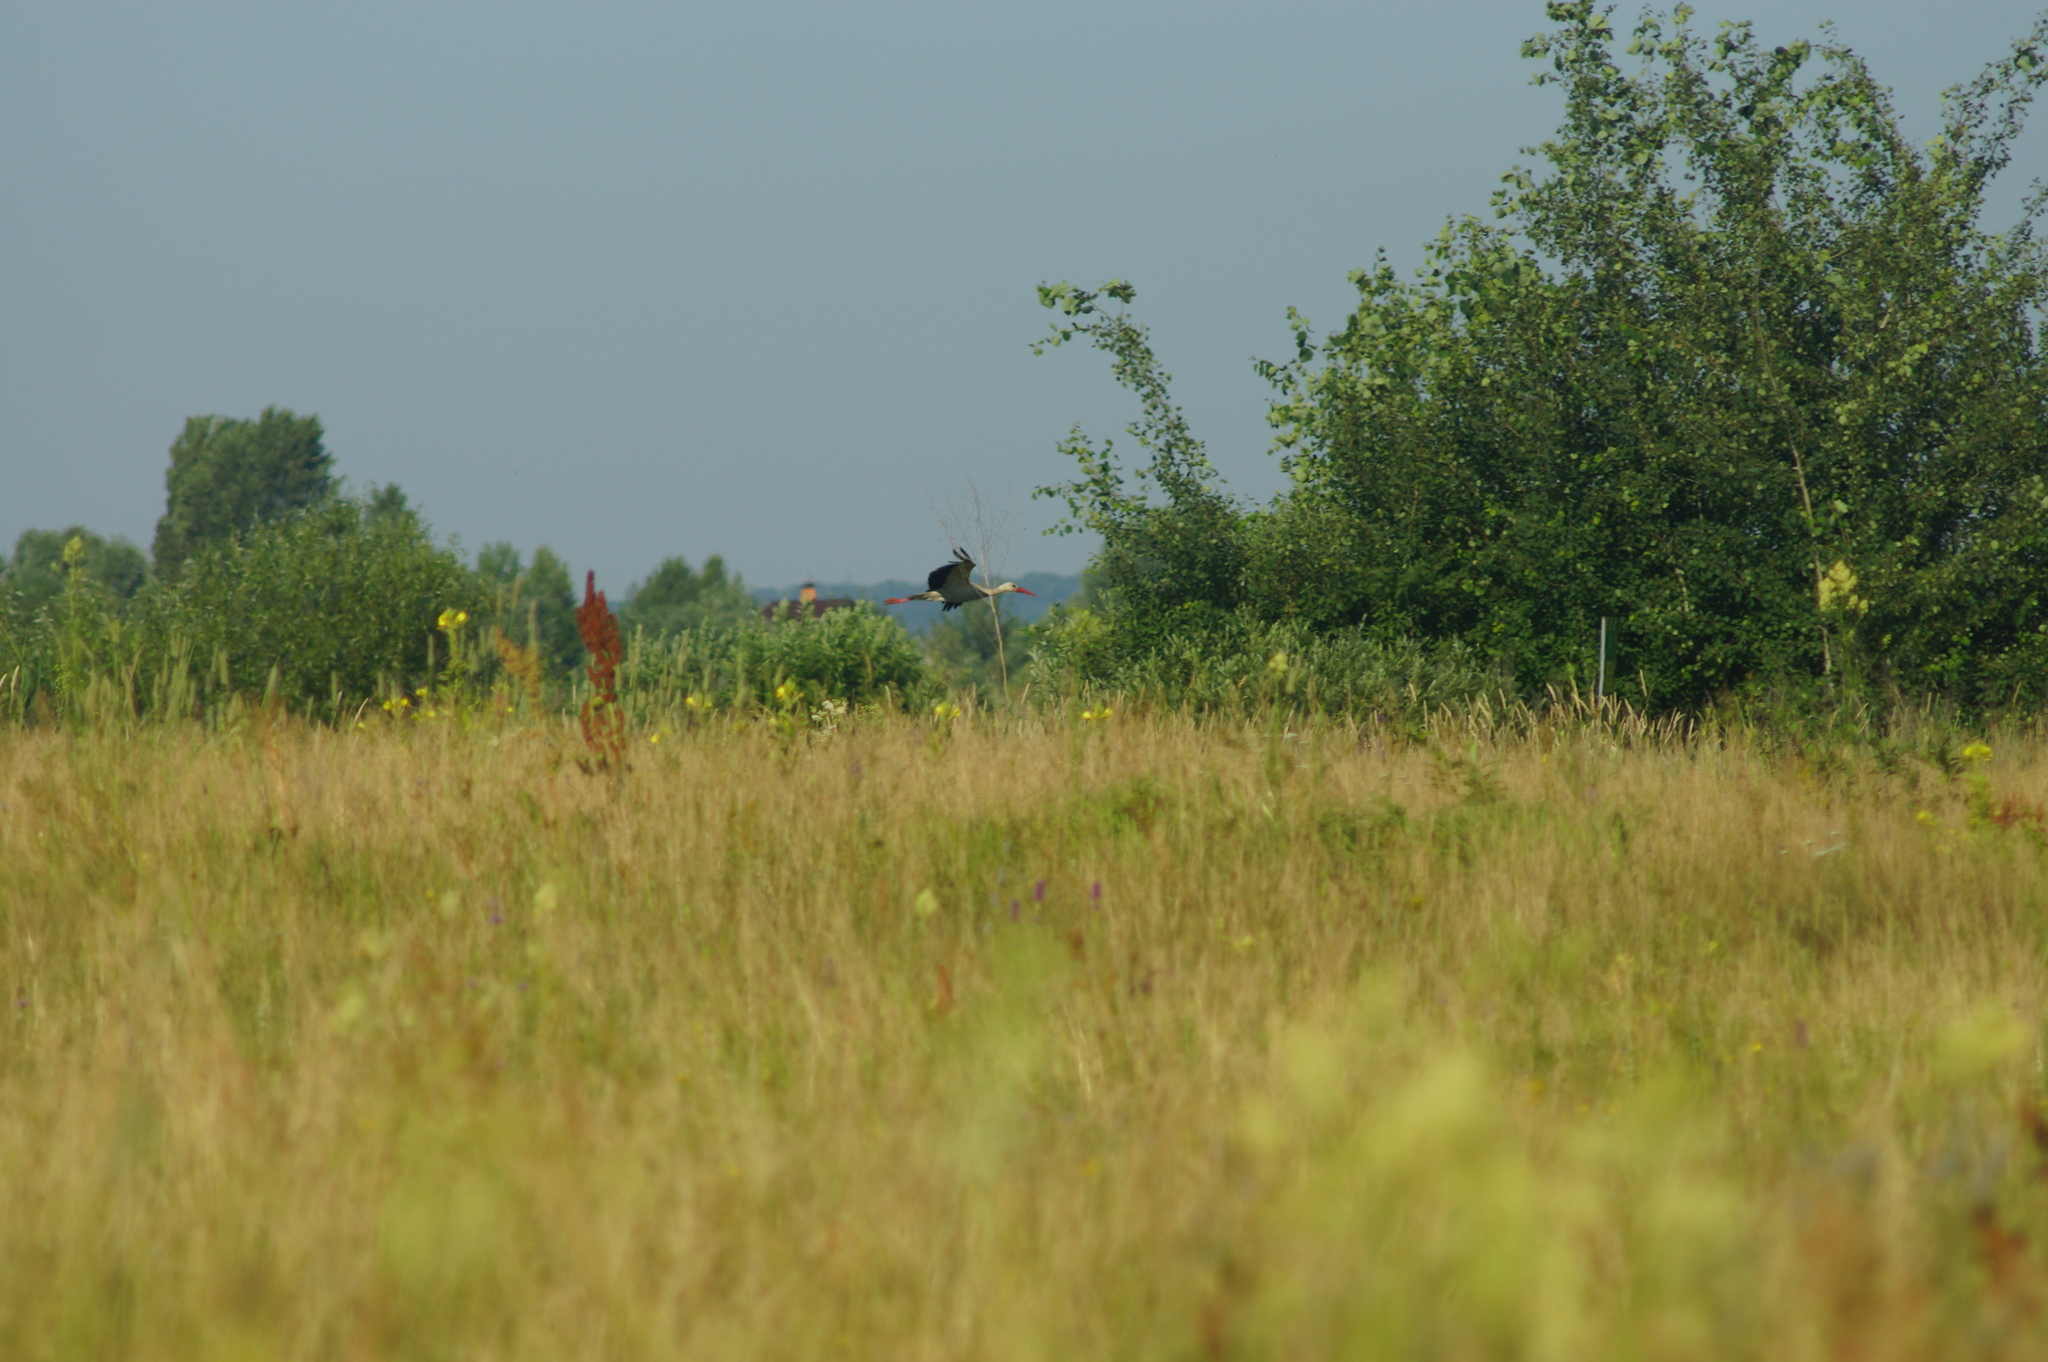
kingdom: Animalia
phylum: Chordata
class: Aves
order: Ciconiiformes
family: Ciconiidae
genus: Ciconia
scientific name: Ciconia ciconia
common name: White stork
